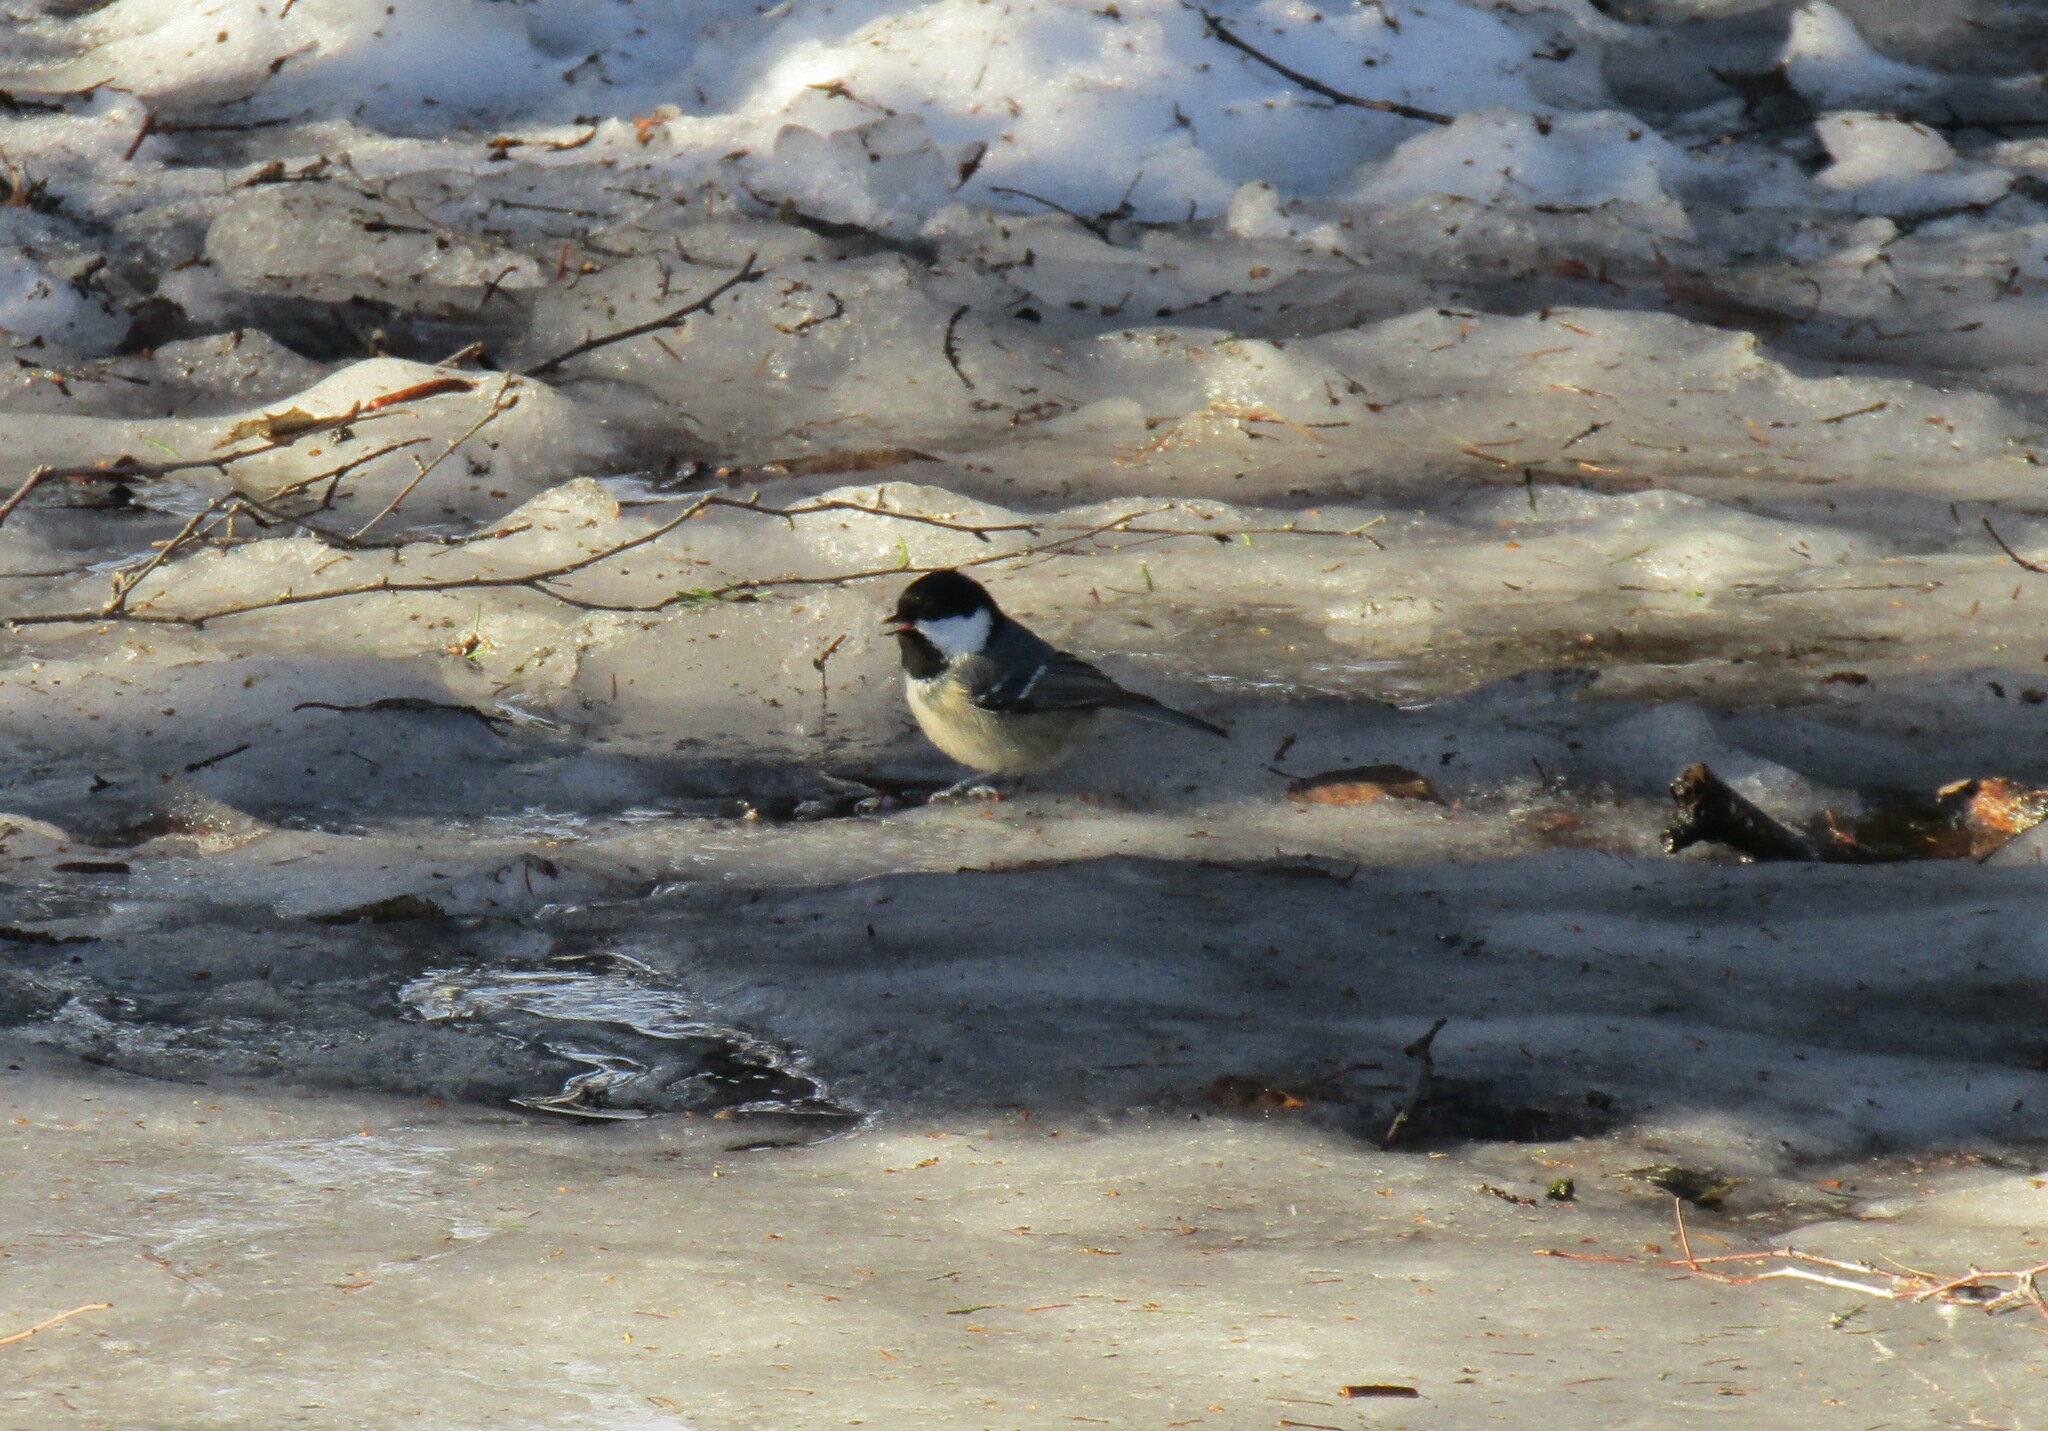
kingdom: Animalia
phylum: Chordata
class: Aves
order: Passeriformes
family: Paridae
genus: Periparus
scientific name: Periparus ater
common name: Coal tit
